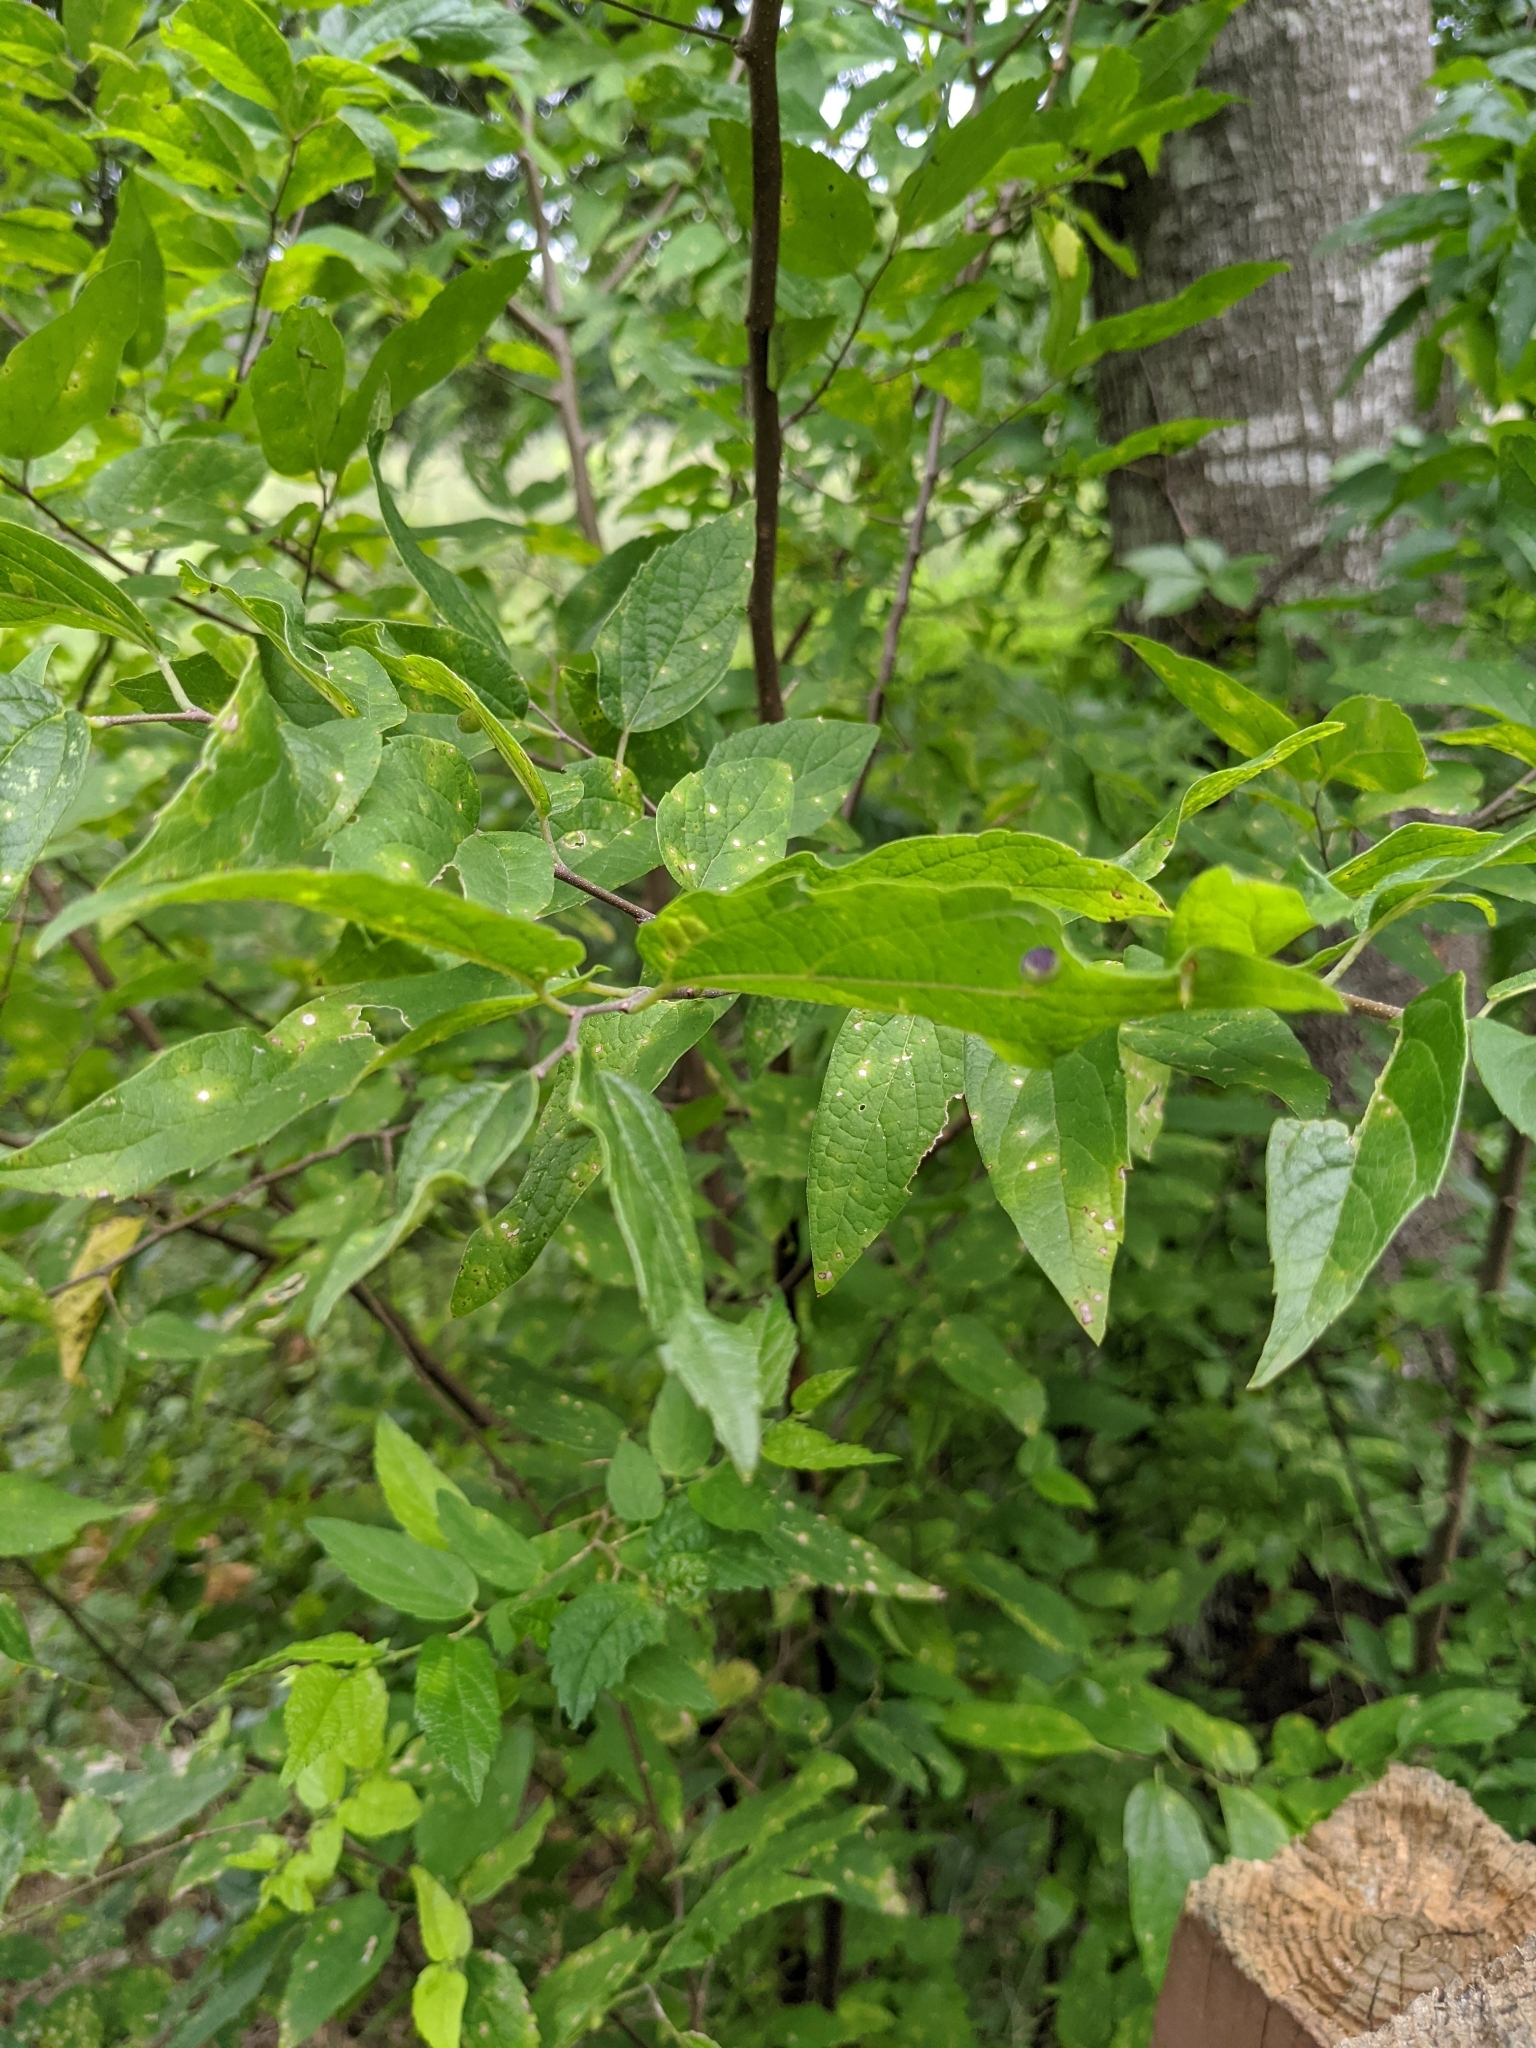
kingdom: Plantae
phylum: Tracheophyta
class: Magnoliopsida
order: Rosales
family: Cannabaceae
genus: Celtis
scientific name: Celtis laevigata
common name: Sugarberry
